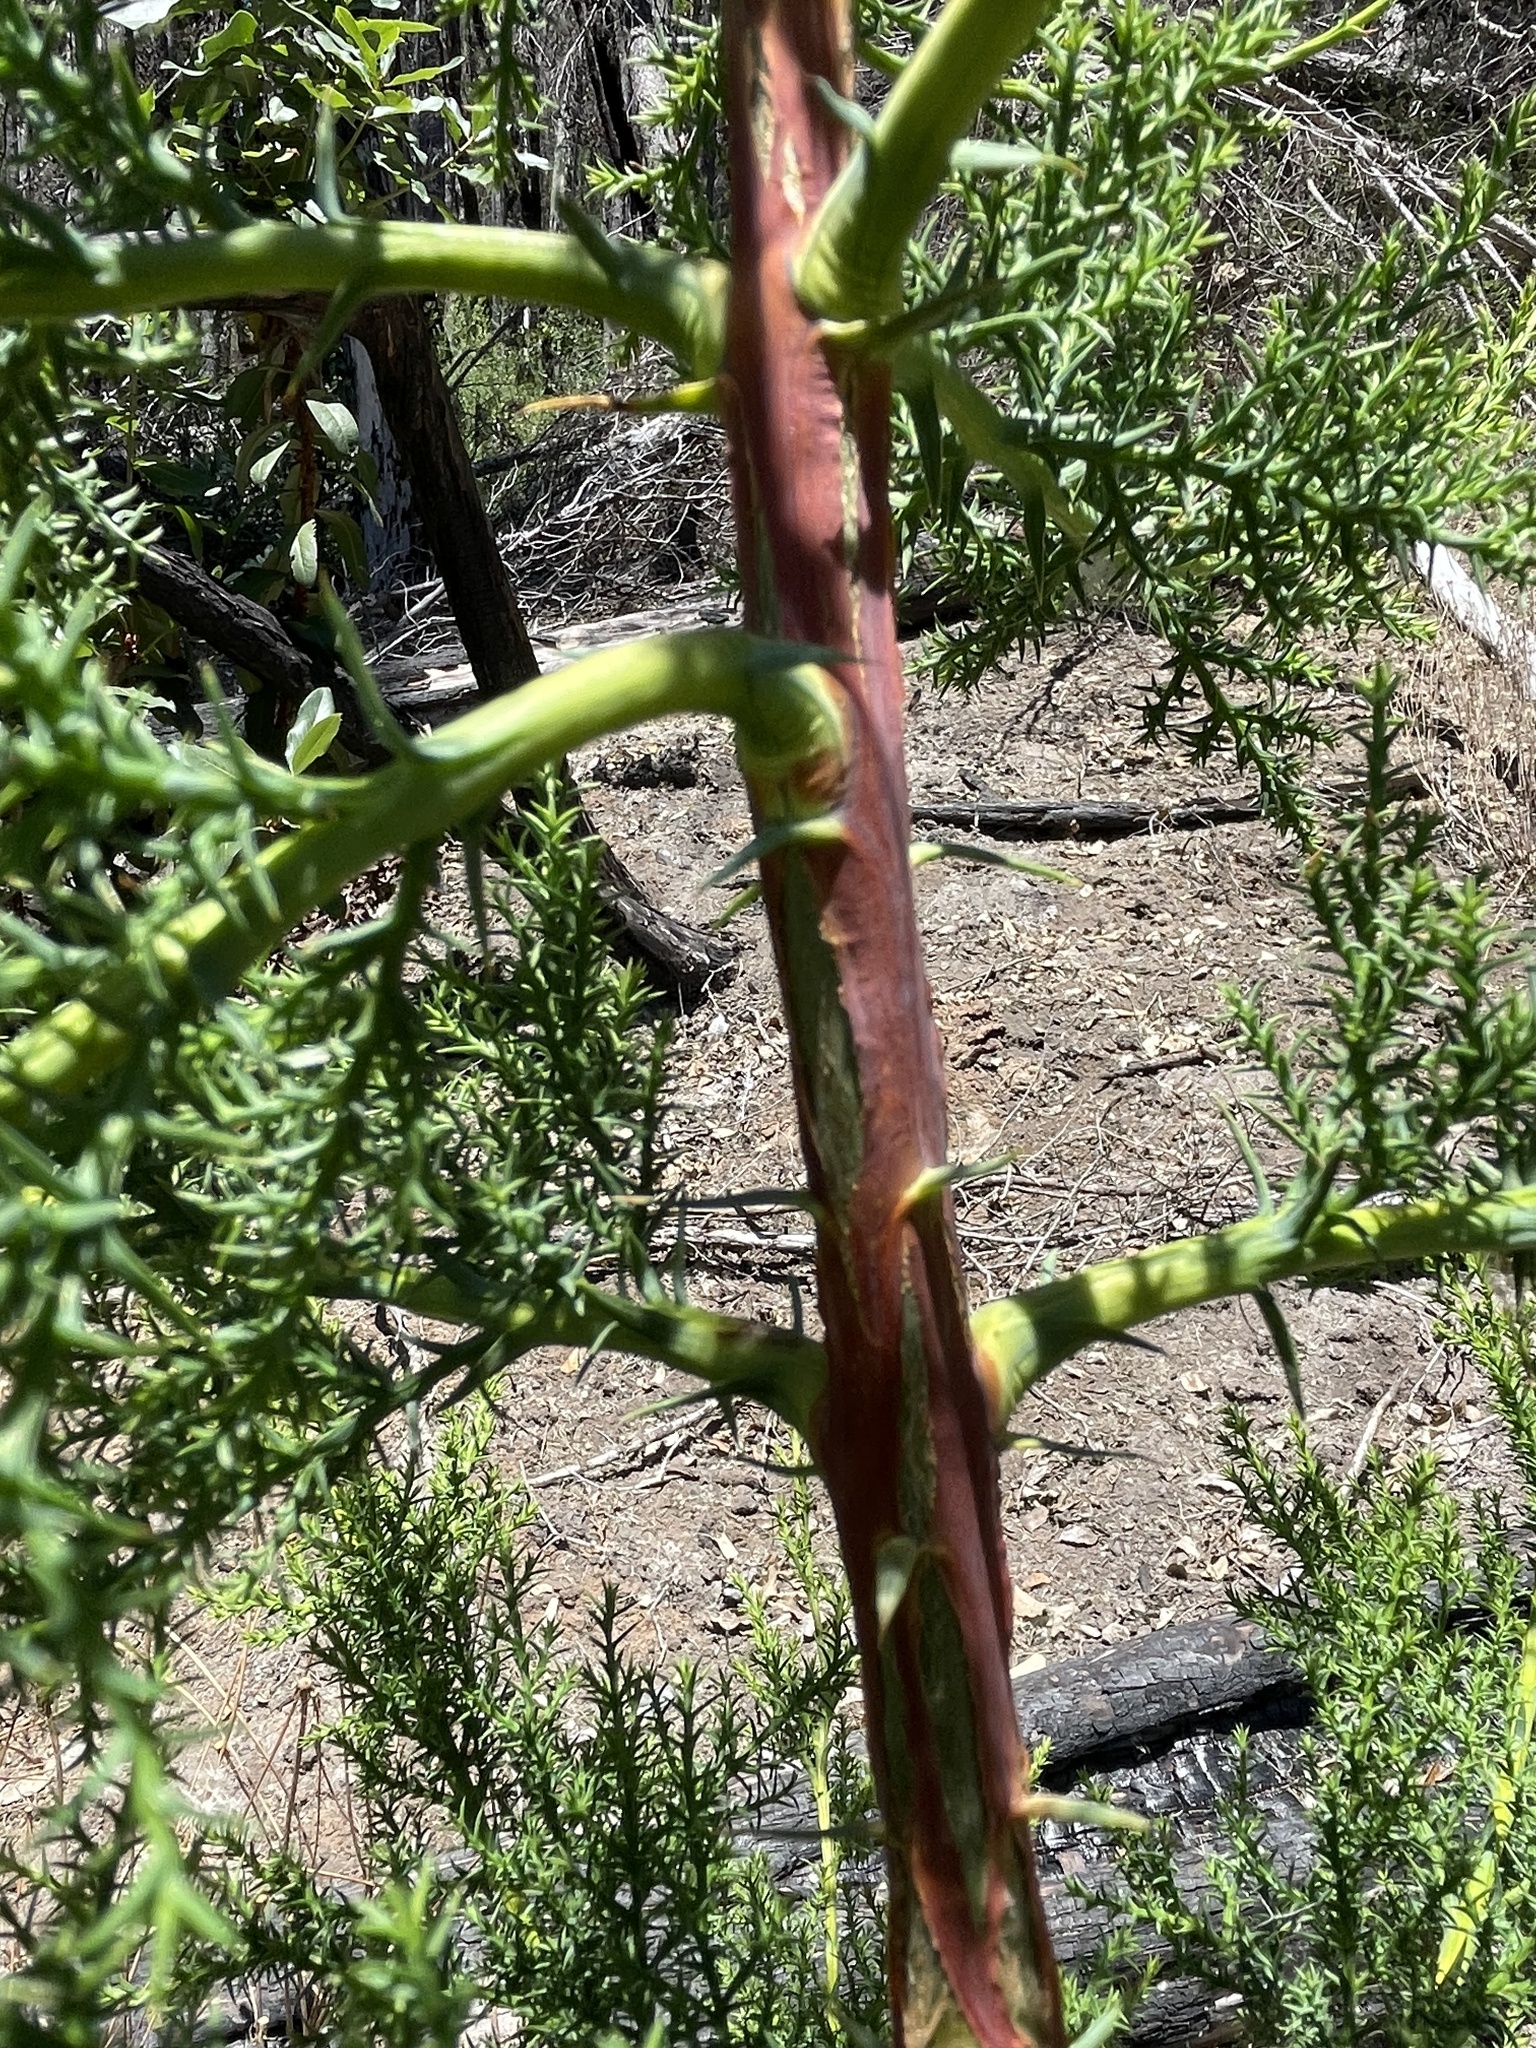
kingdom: Plantae
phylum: Tracheophyta
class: Pinopsida
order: Pinales
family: Cupressaceae
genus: Cupressus
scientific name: Cupressus goveniana
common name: Gowen cypress
